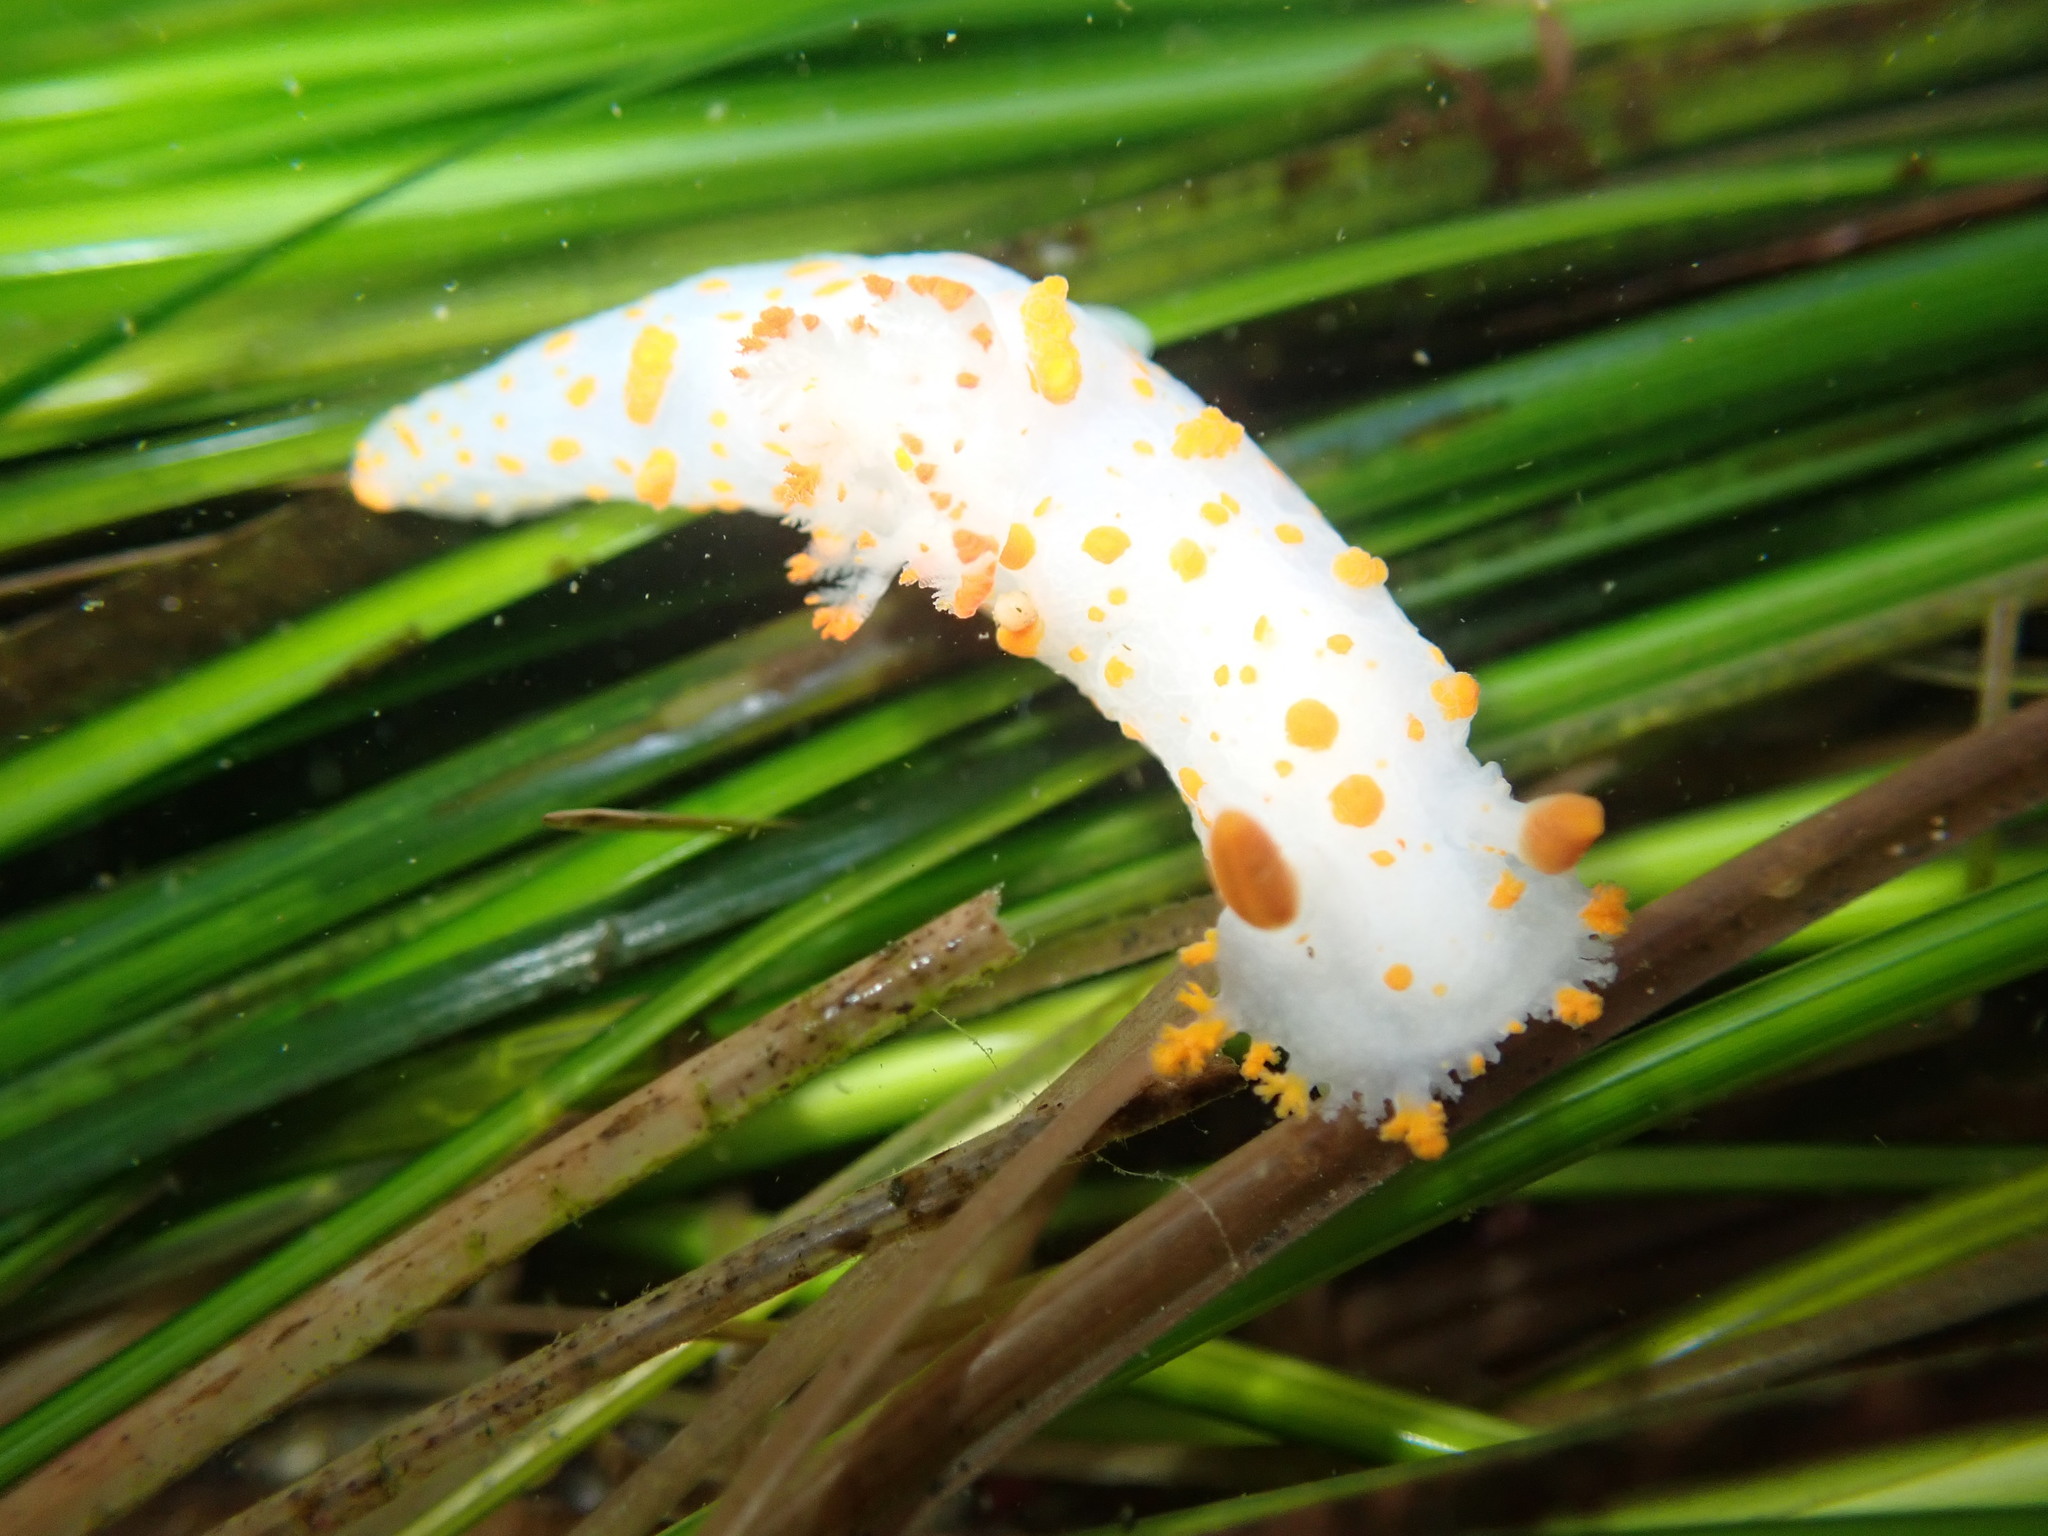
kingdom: Animalia
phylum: Mollusca
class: Gastropoda
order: Nudibranchia
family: Polyceridae
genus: Triopha
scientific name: Triopha catalinae
